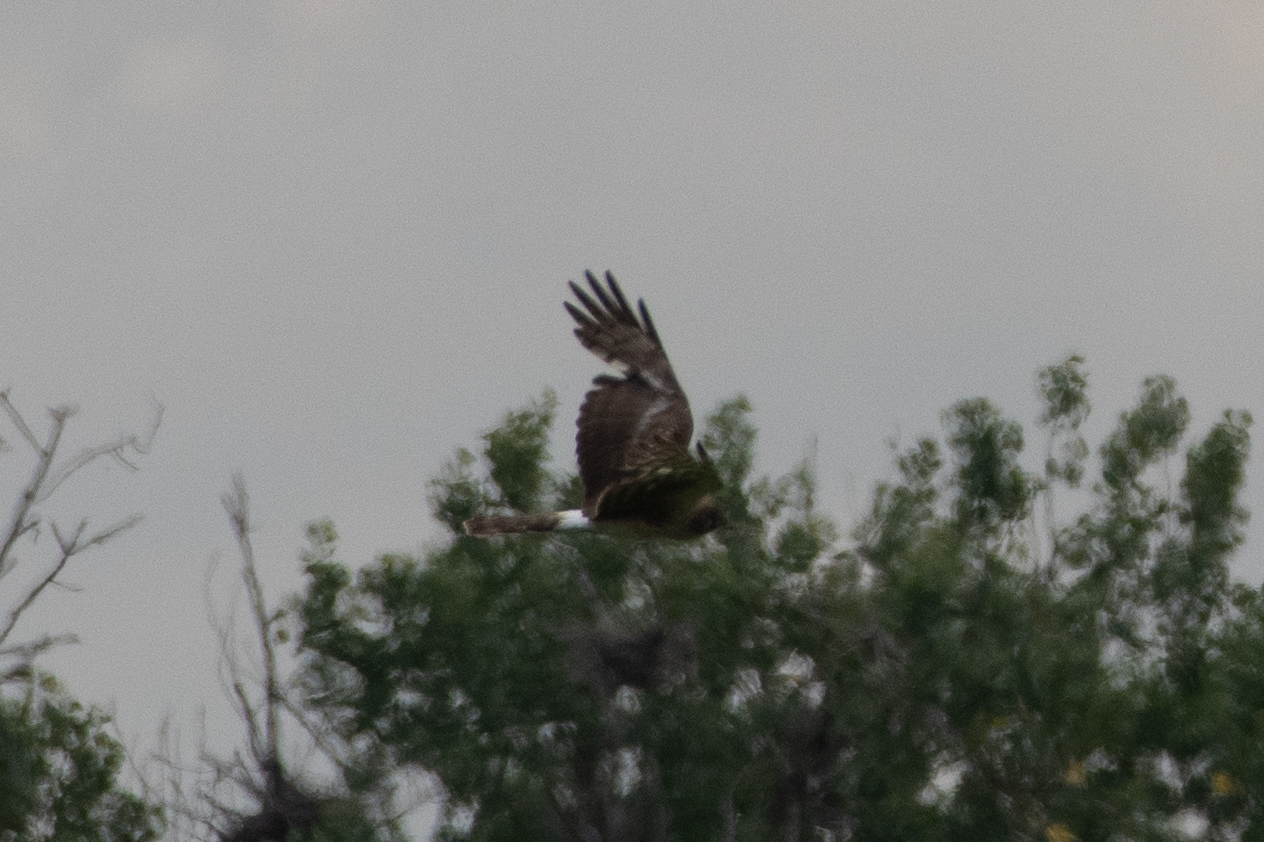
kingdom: Animalia
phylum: Chordata
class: Aves
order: Accipitriformes
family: Accipitridae
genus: Circus
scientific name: Circus cyaneus
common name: Hen harrier
